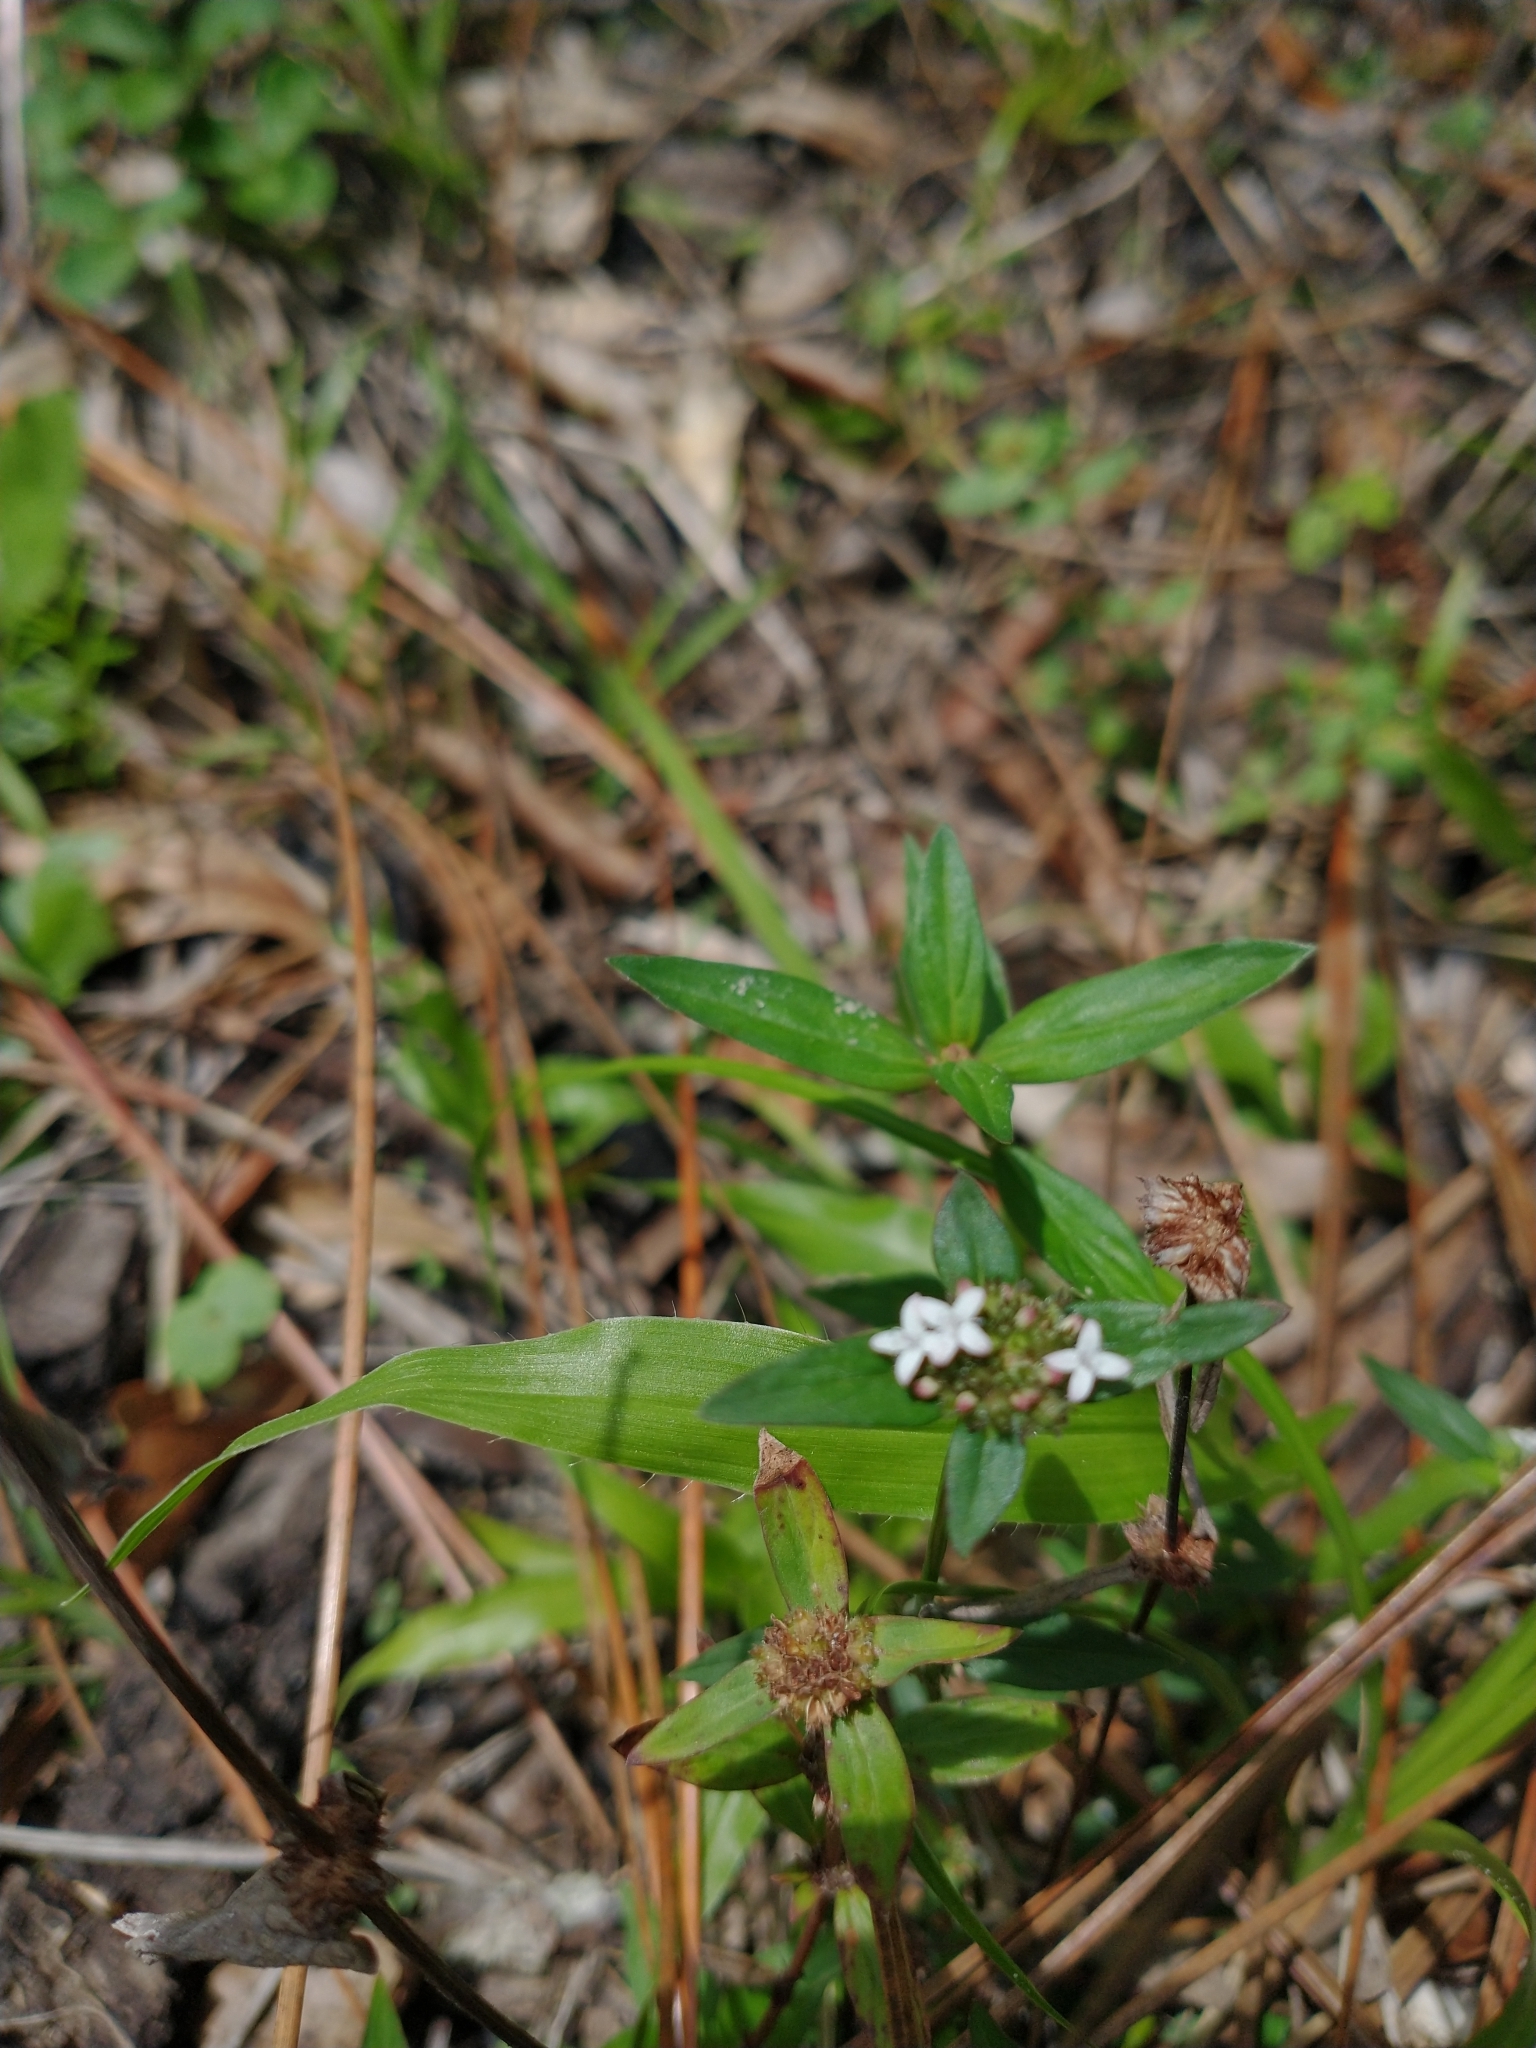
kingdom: Plantae
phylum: Tracheophyta
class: Magnoliopsida
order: Gentianales
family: Rubiaceae
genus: Spermacoce
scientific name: Spermacoce remota
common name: Woodland false buttonweed
